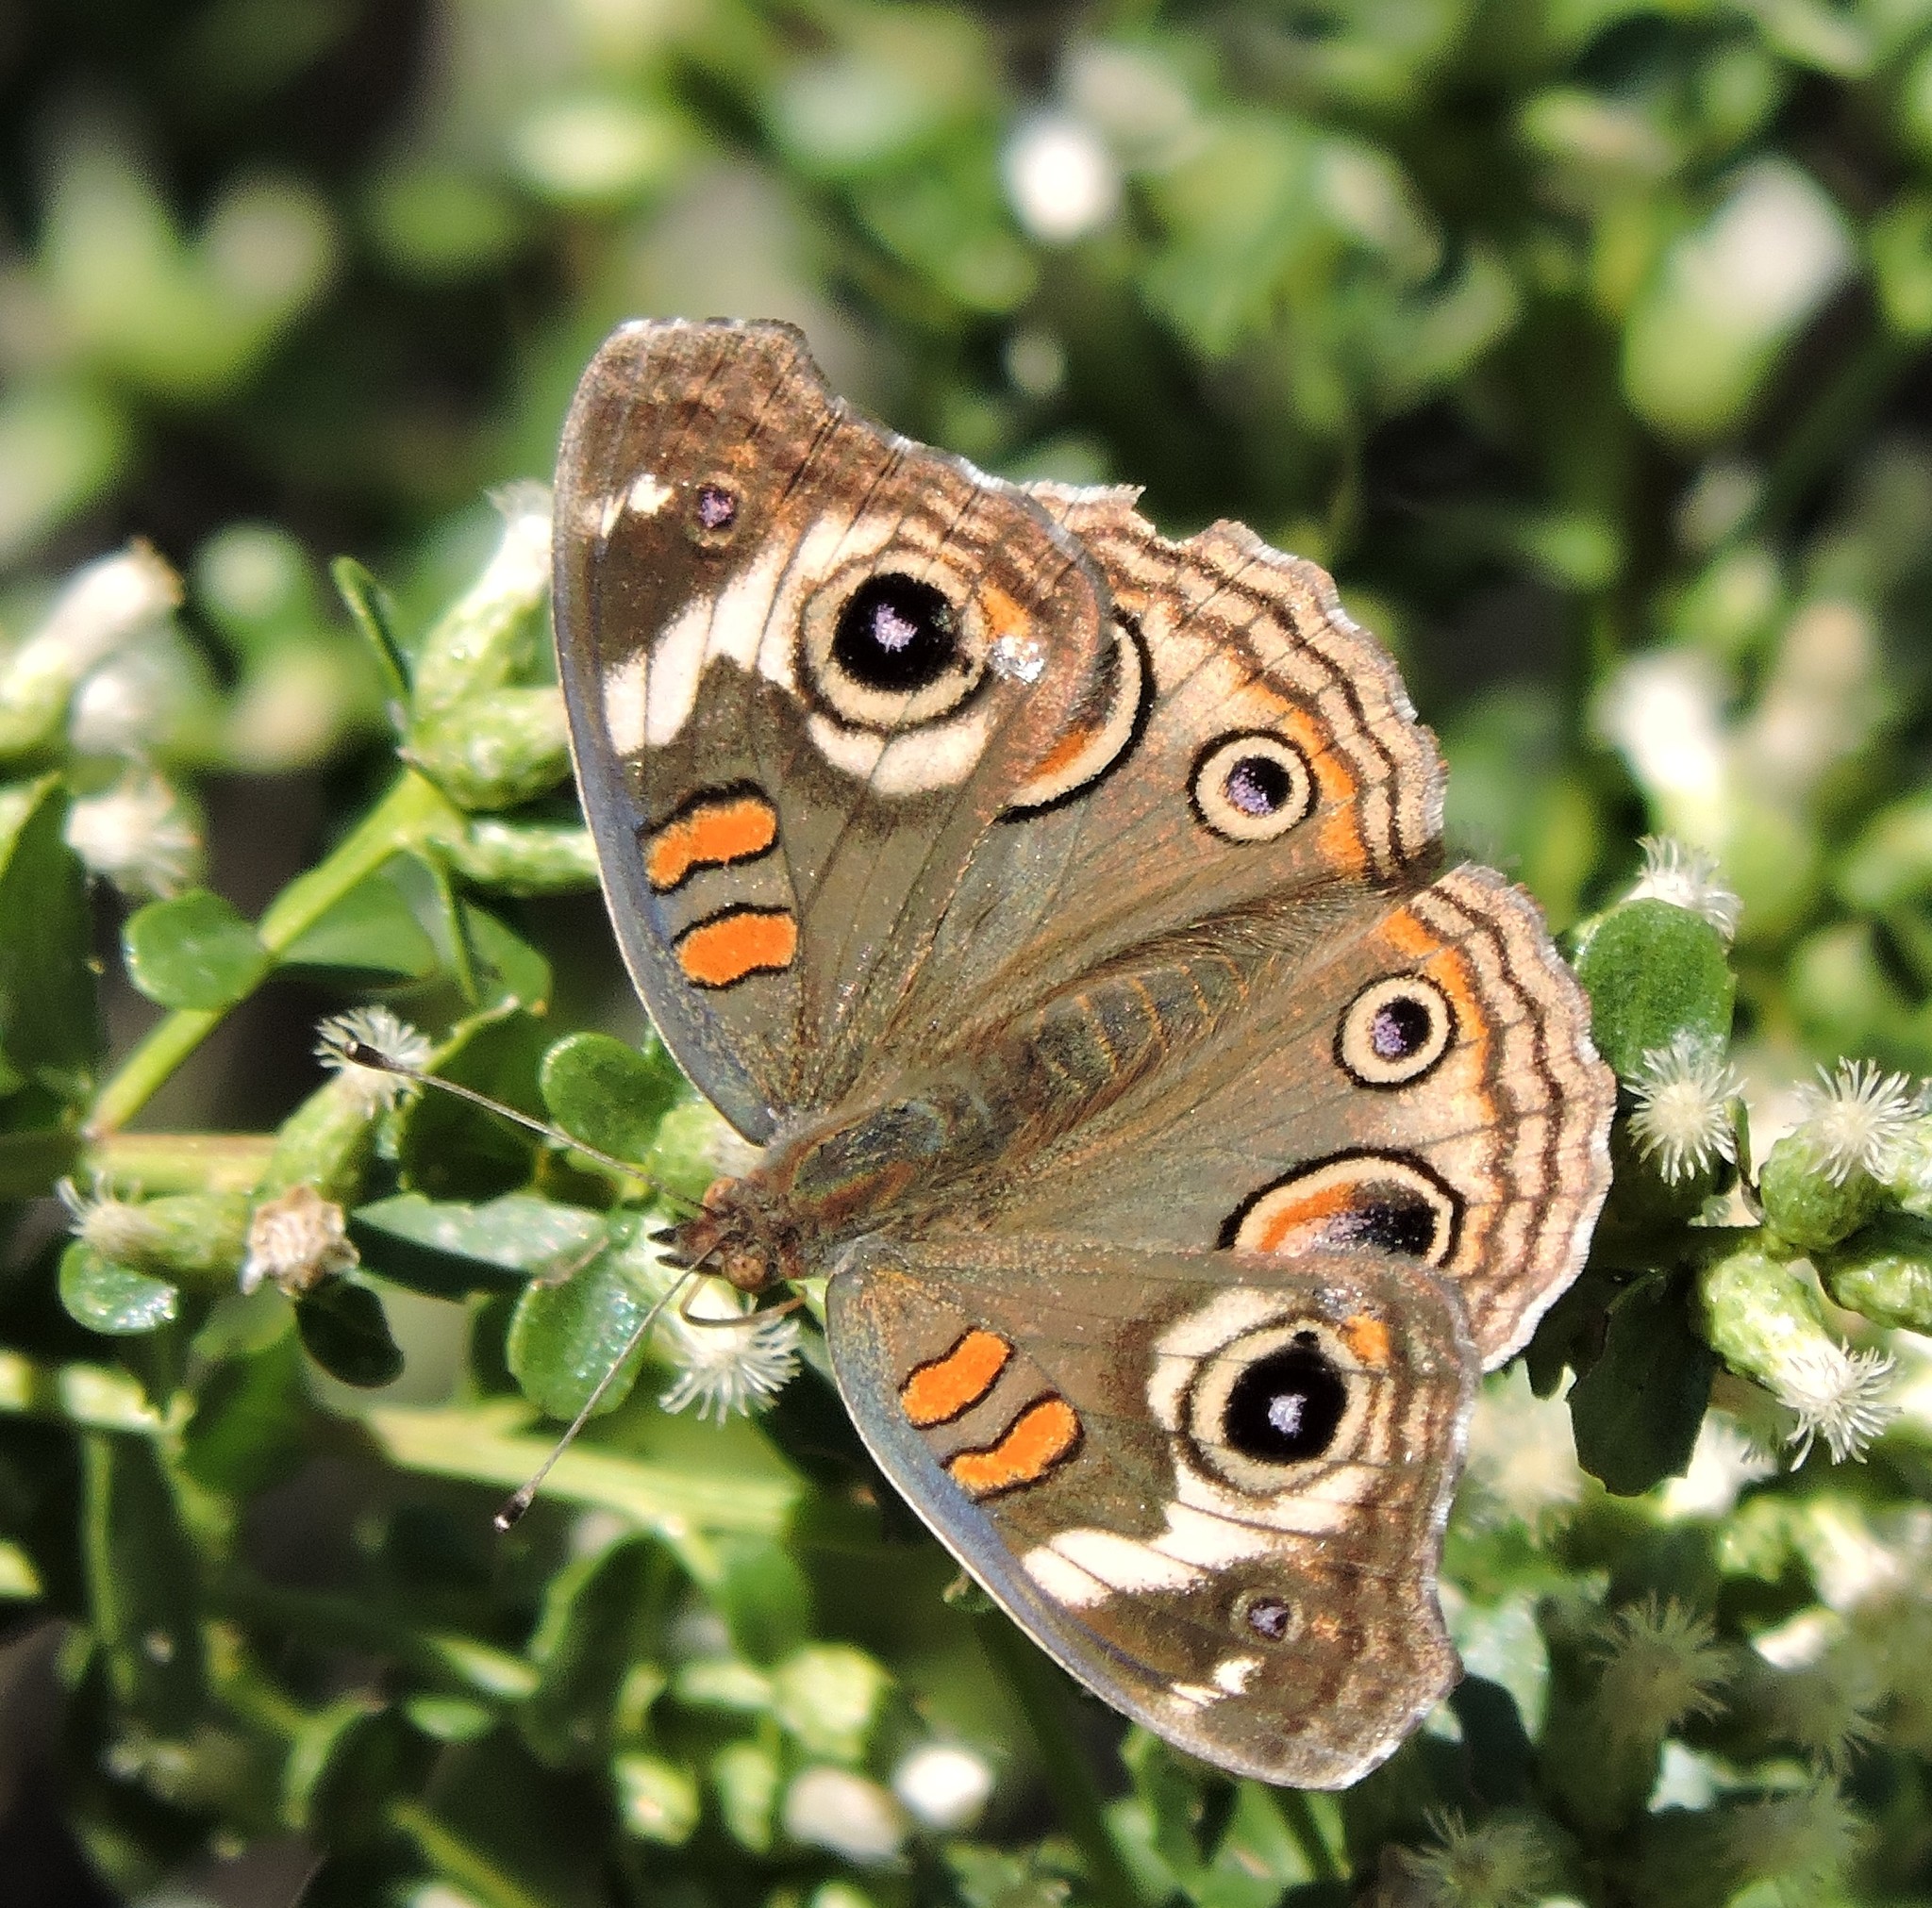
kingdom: Animalia
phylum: Arthropoda
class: Insecta
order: Lepidoptera
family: Nymphalidae
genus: Junonia
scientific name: Junonia grisea
